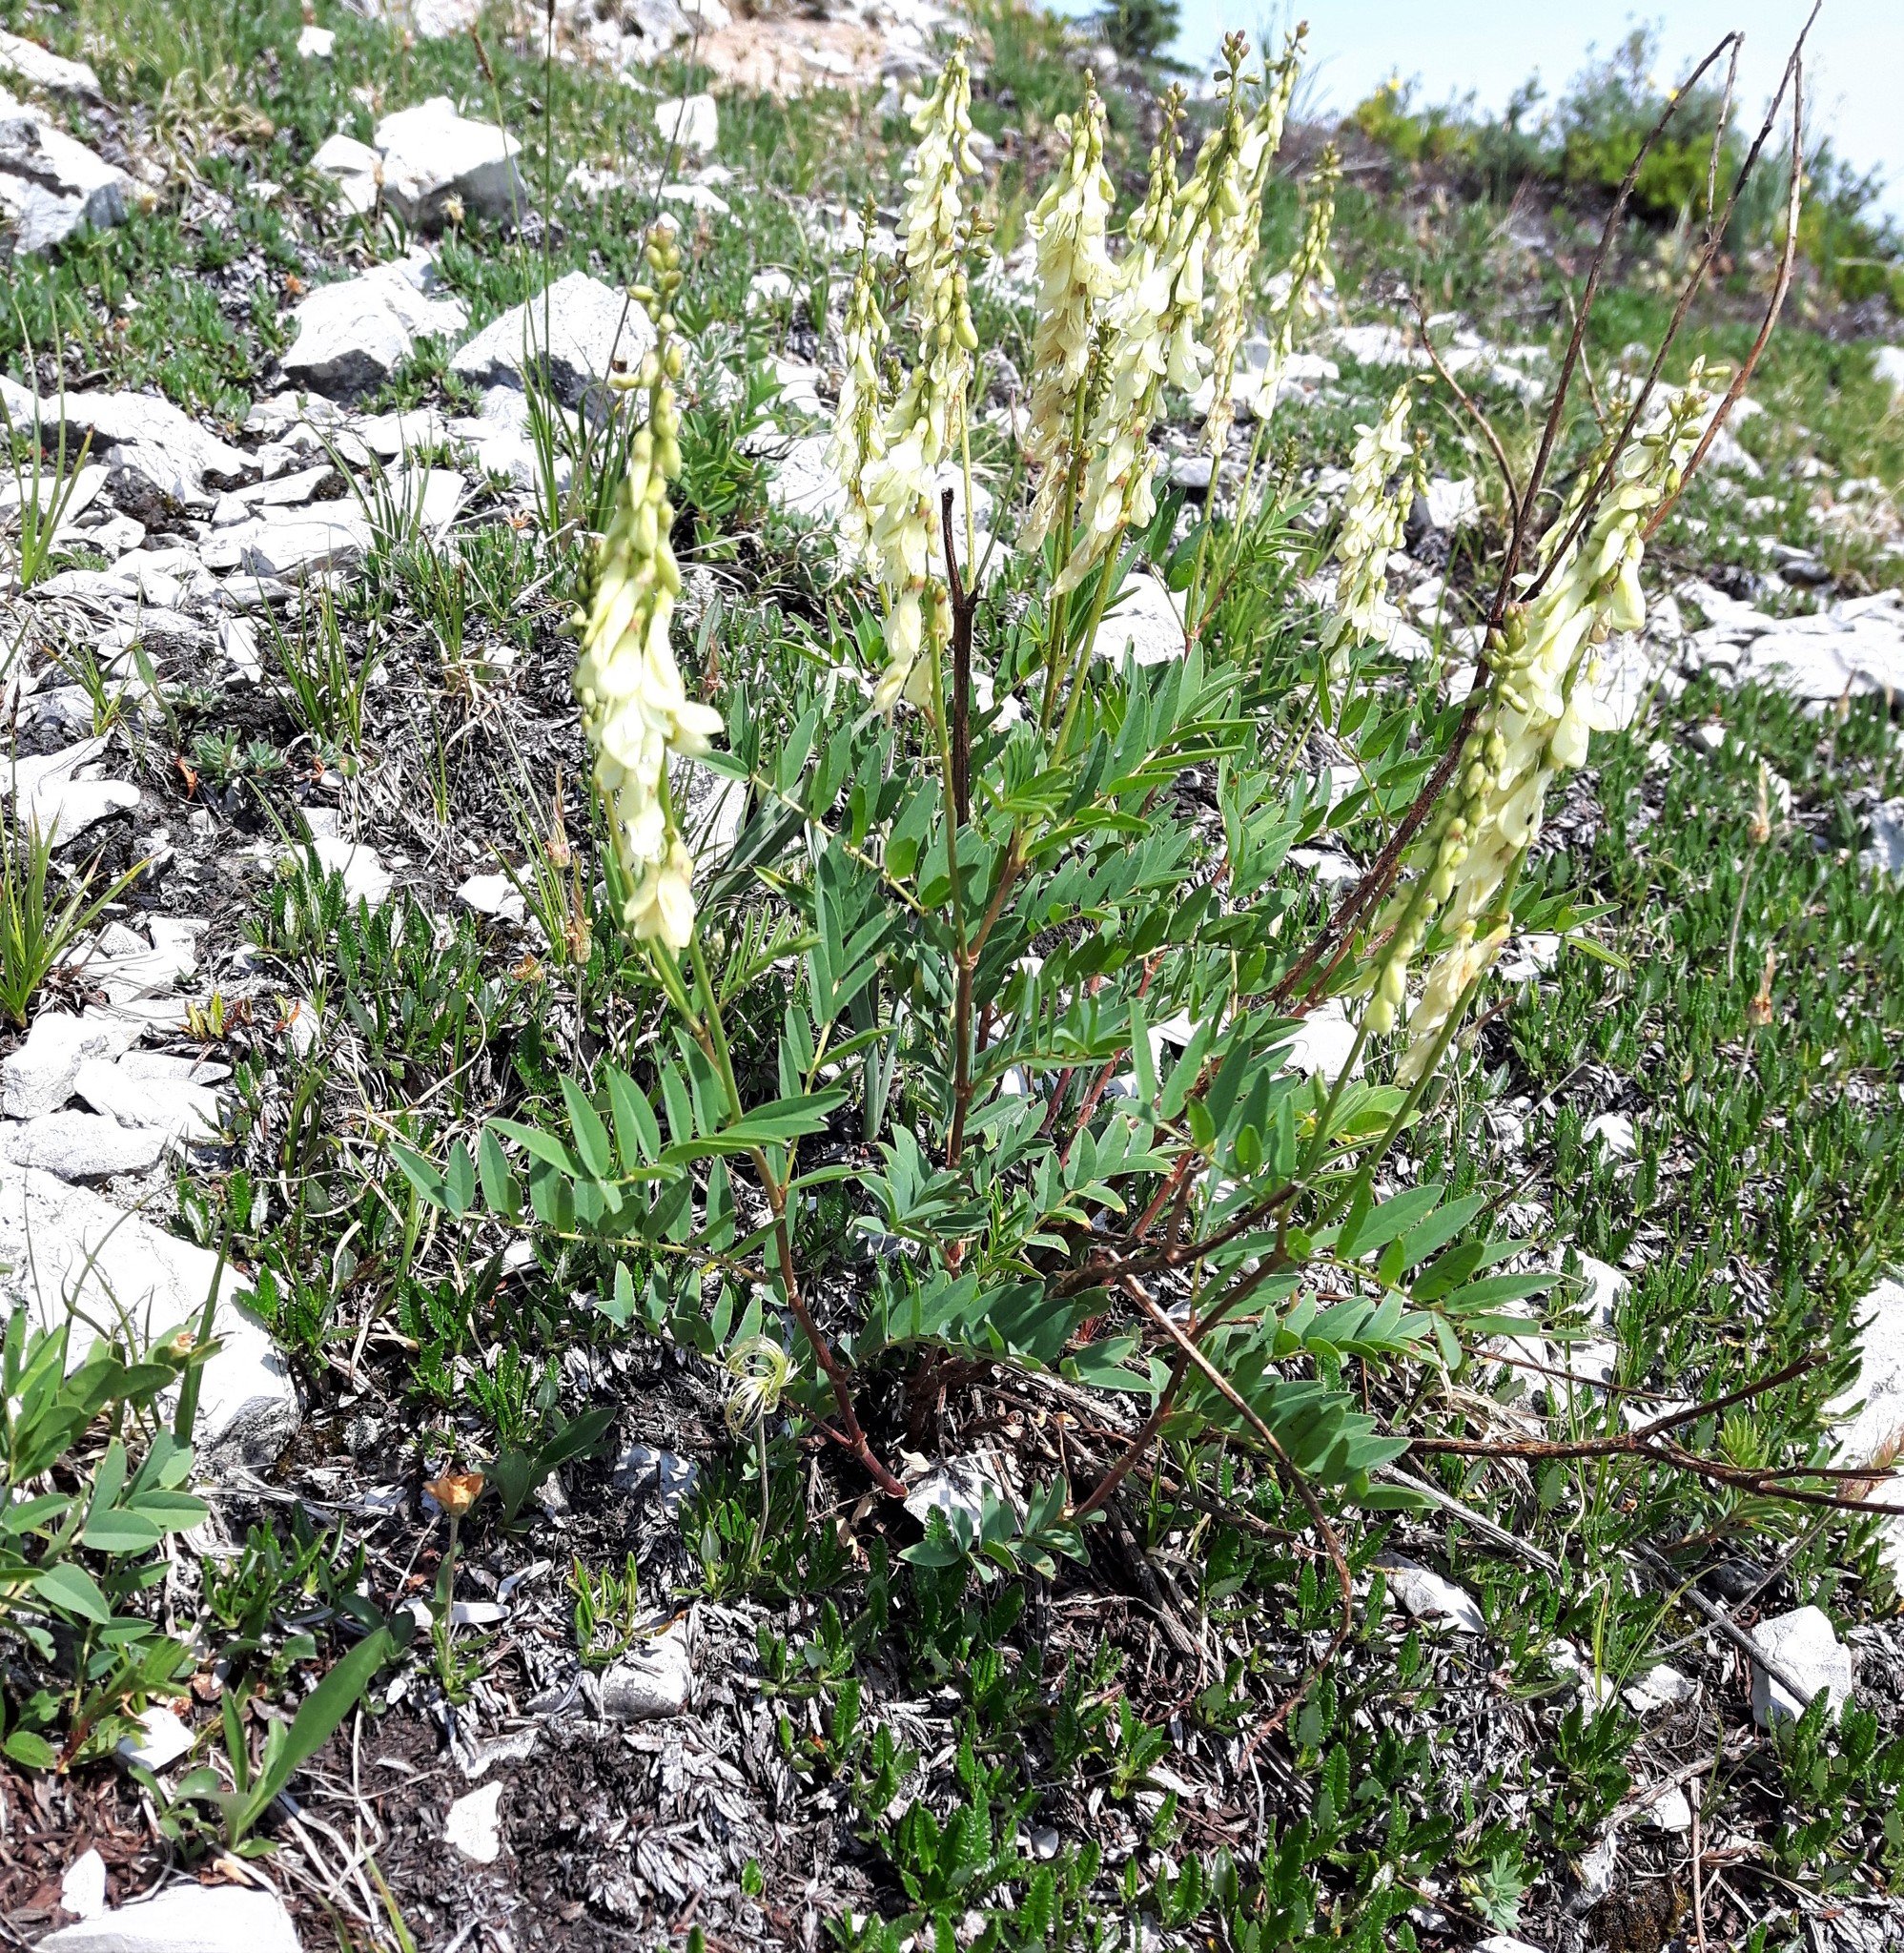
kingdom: Plantae
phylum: Tracheophyta
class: Magnoliopsida
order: Fabales
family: Fabaceae
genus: Hedysarum
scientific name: Hedysarum sulphurescens
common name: Sulphur hedysarum
